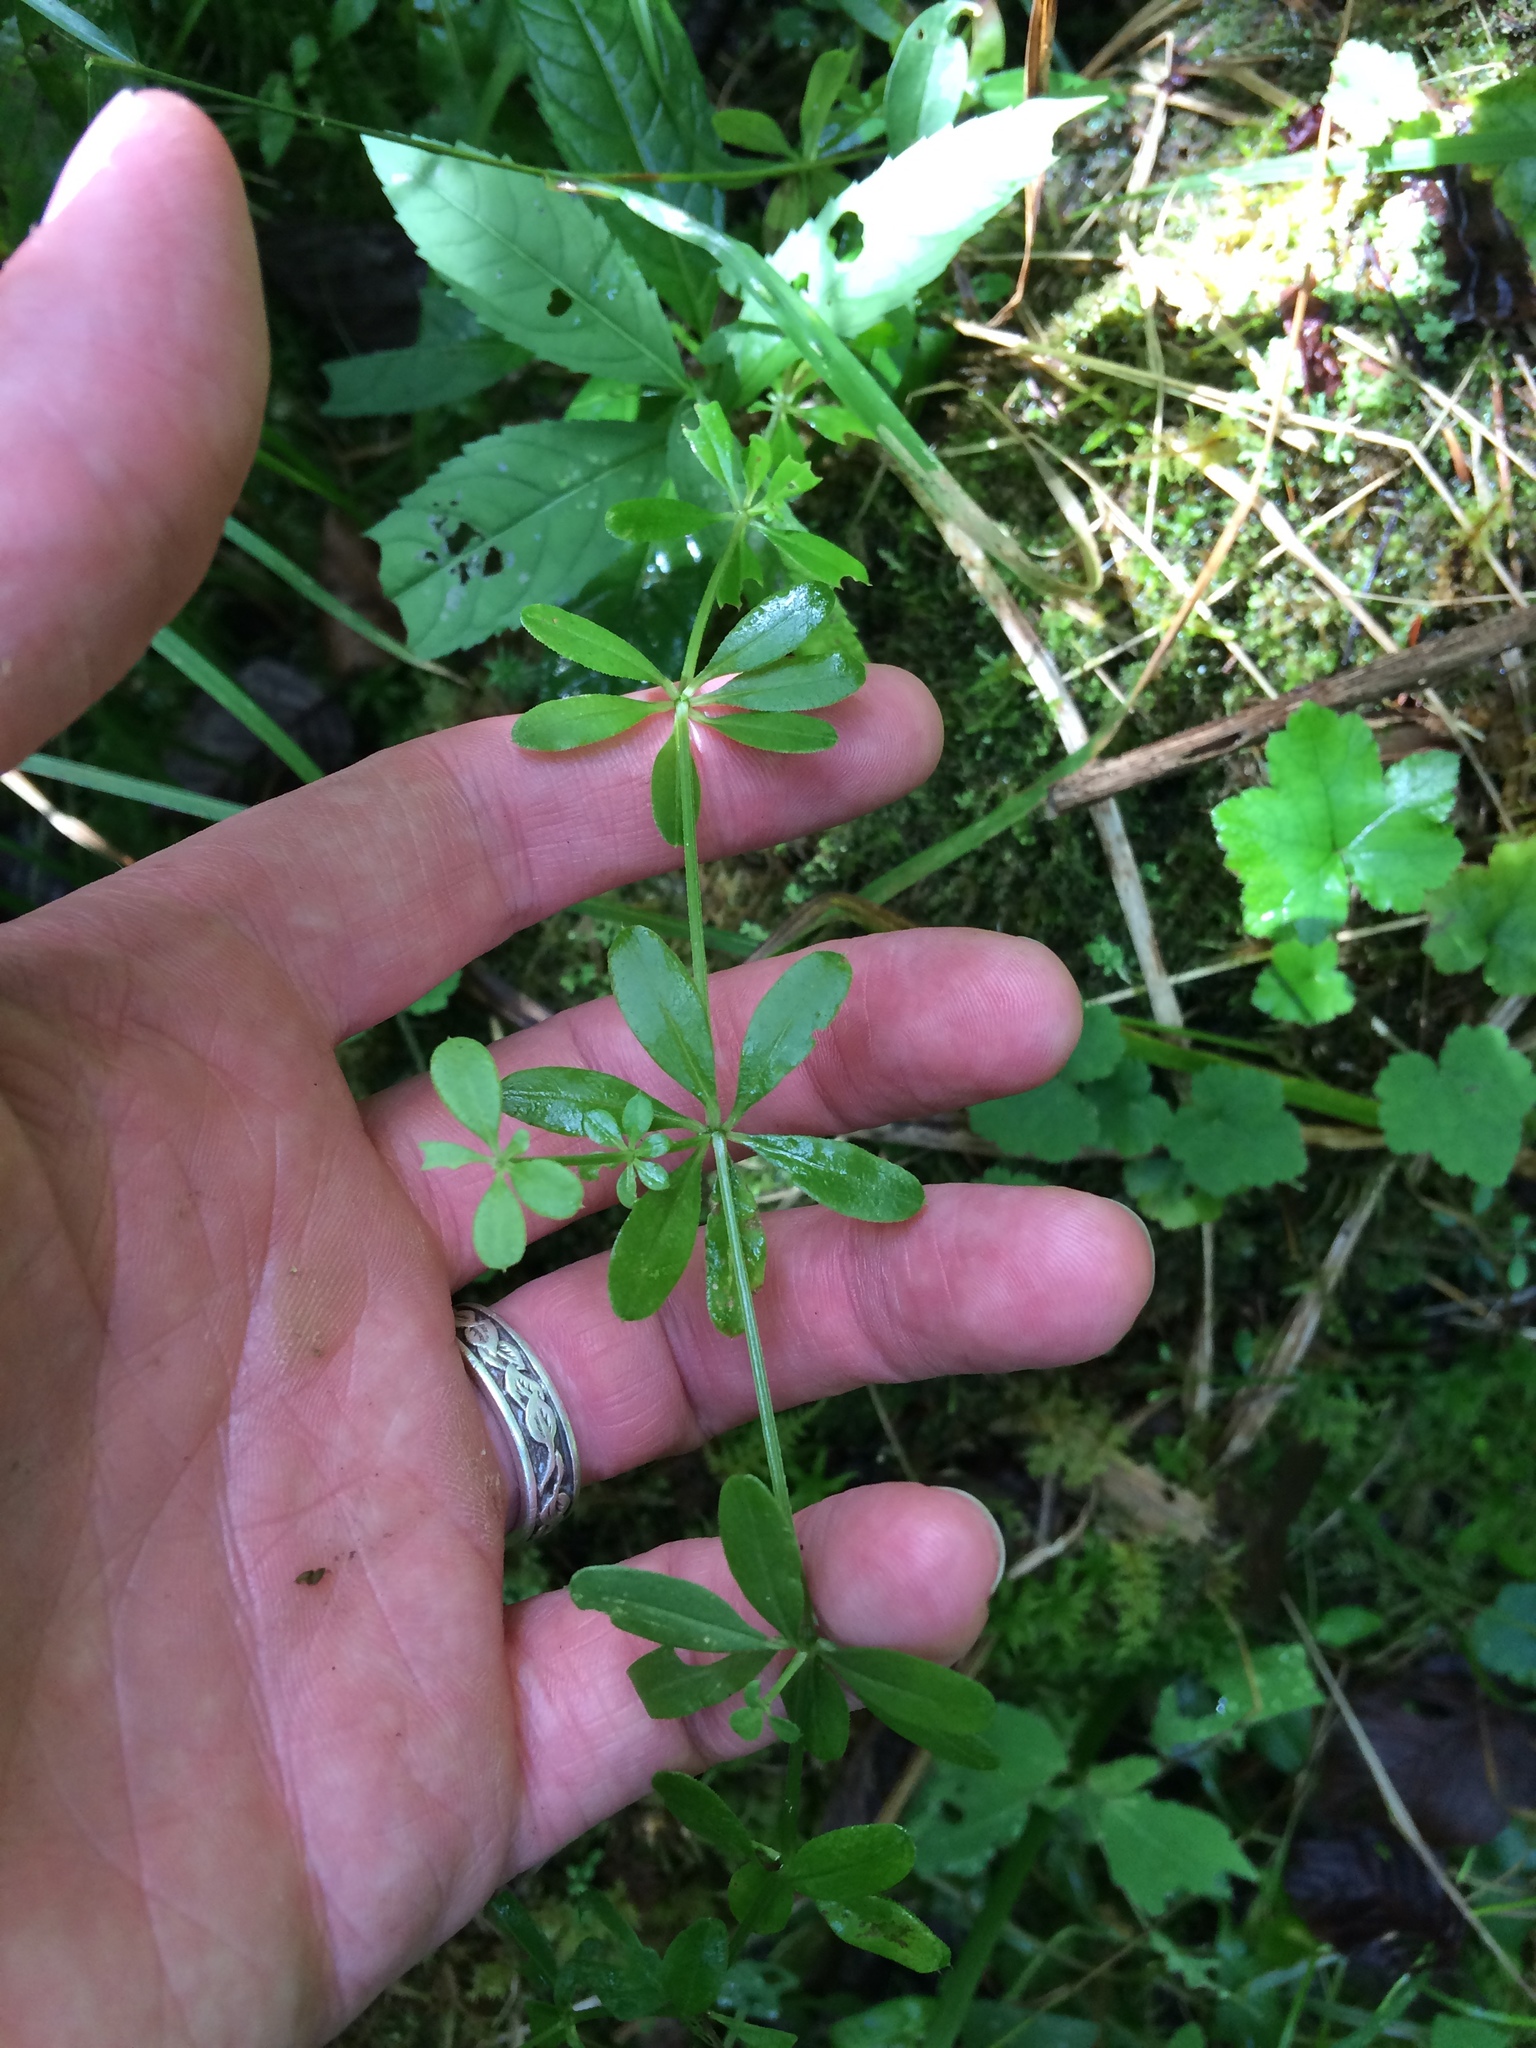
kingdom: Plantae
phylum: Tracheophyta
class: Magnoliopsida
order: Gentianales
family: Rubiaceae
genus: Galium
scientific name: Galium asprellum
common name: Rough bedstraw
